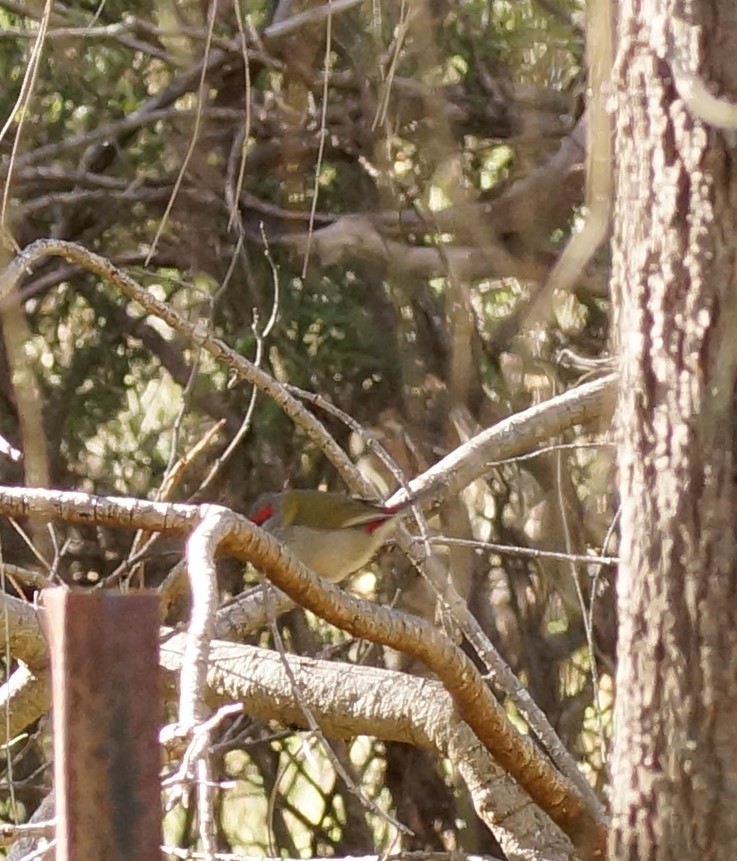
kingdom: Animalia
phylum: Chordata
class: Aves
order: Passeriformes
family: Estrildidae
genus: Neochmia
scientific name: Neochmia temporalis
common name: Red-browed finch
